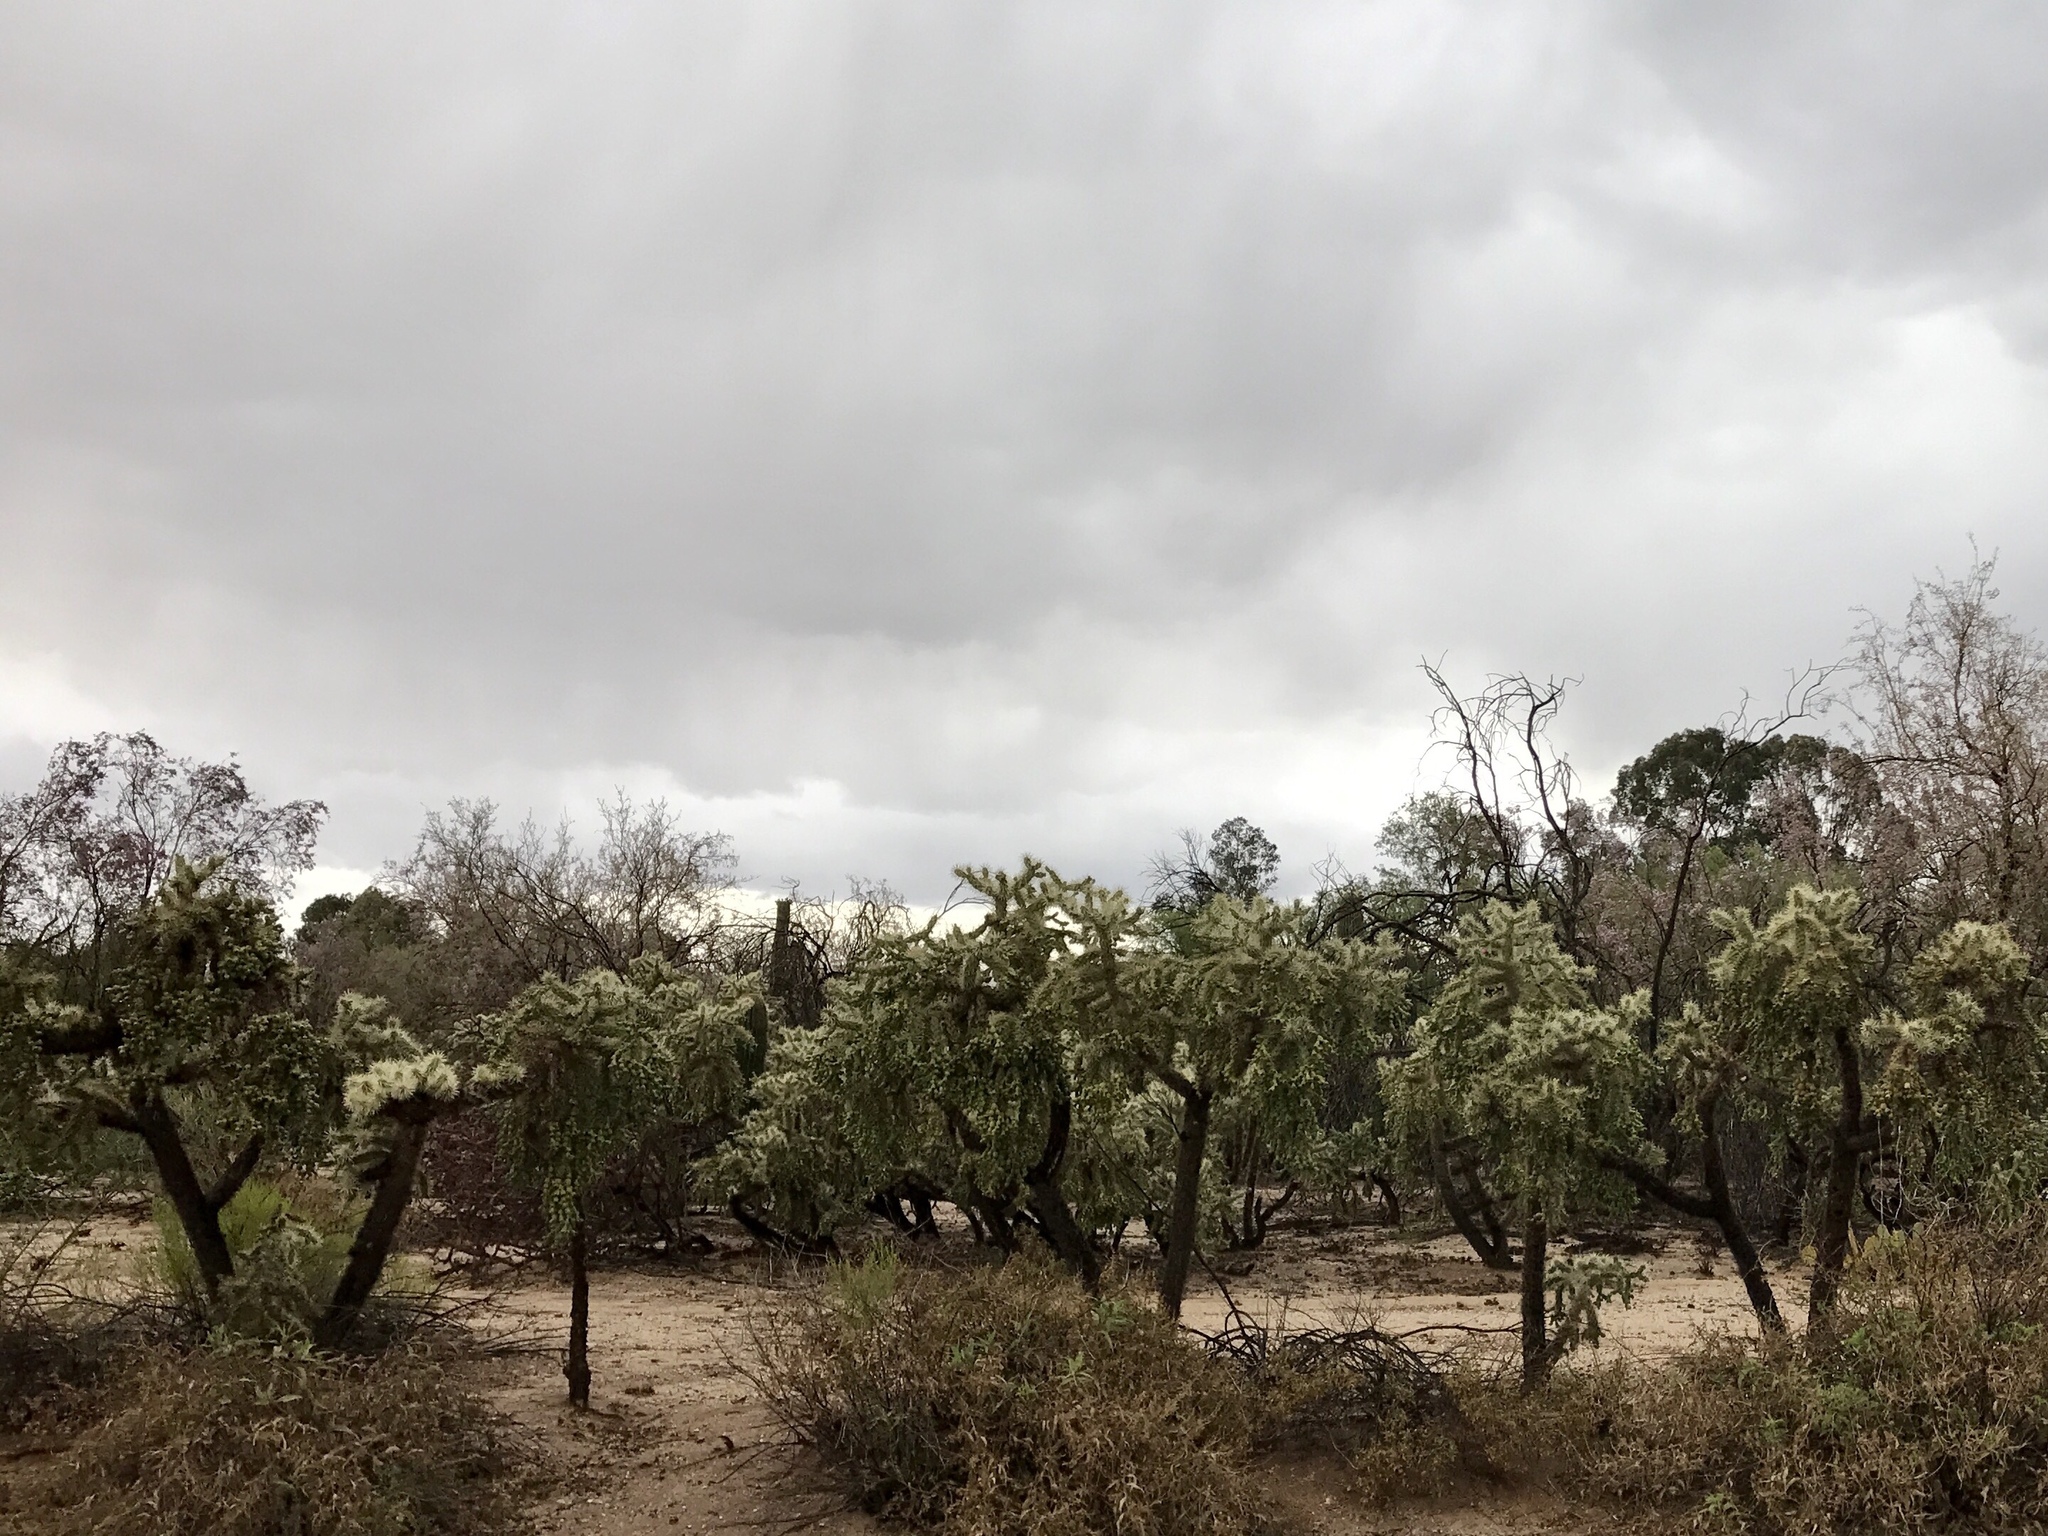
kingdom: Plantae
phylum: Tracheophyta
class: Magnoliopsida
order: Caryophyllales
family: Cactaceae
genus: Cylindropuntia
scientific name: Cylindropuntia fulgida
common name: Jumping cholla
